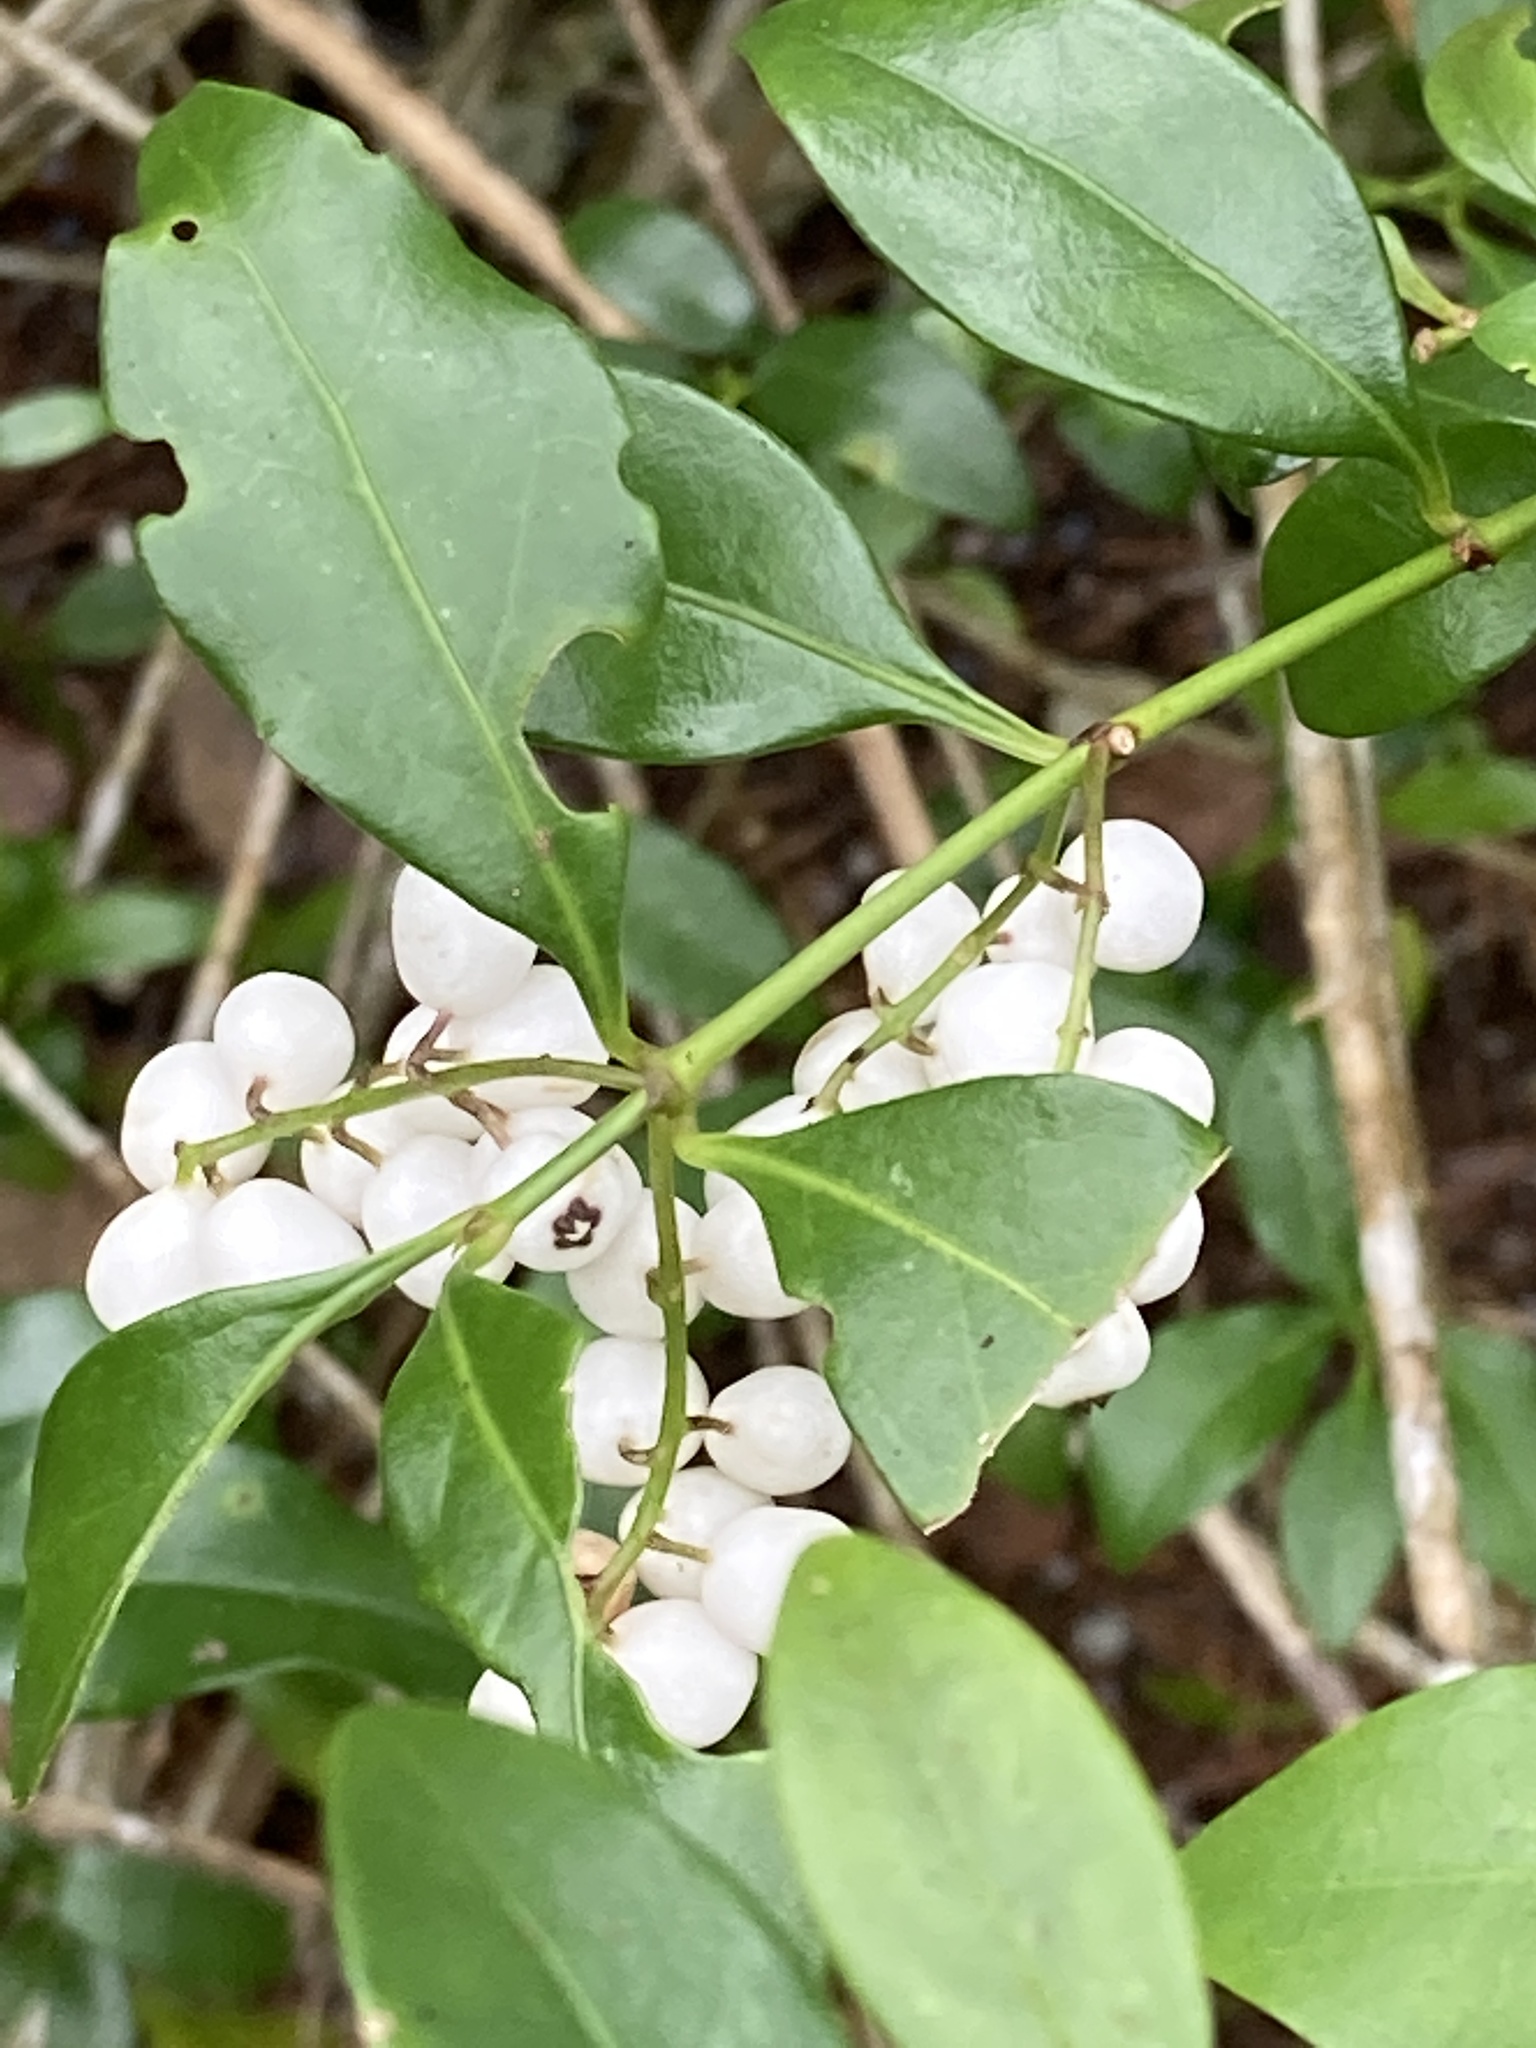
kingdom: Plantae
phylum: Tracheophyta
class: Magnoliopsida
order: Gentianales
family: Rubiaceae
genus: Chiococca
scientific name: Chiococca alba
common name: Snowberry
